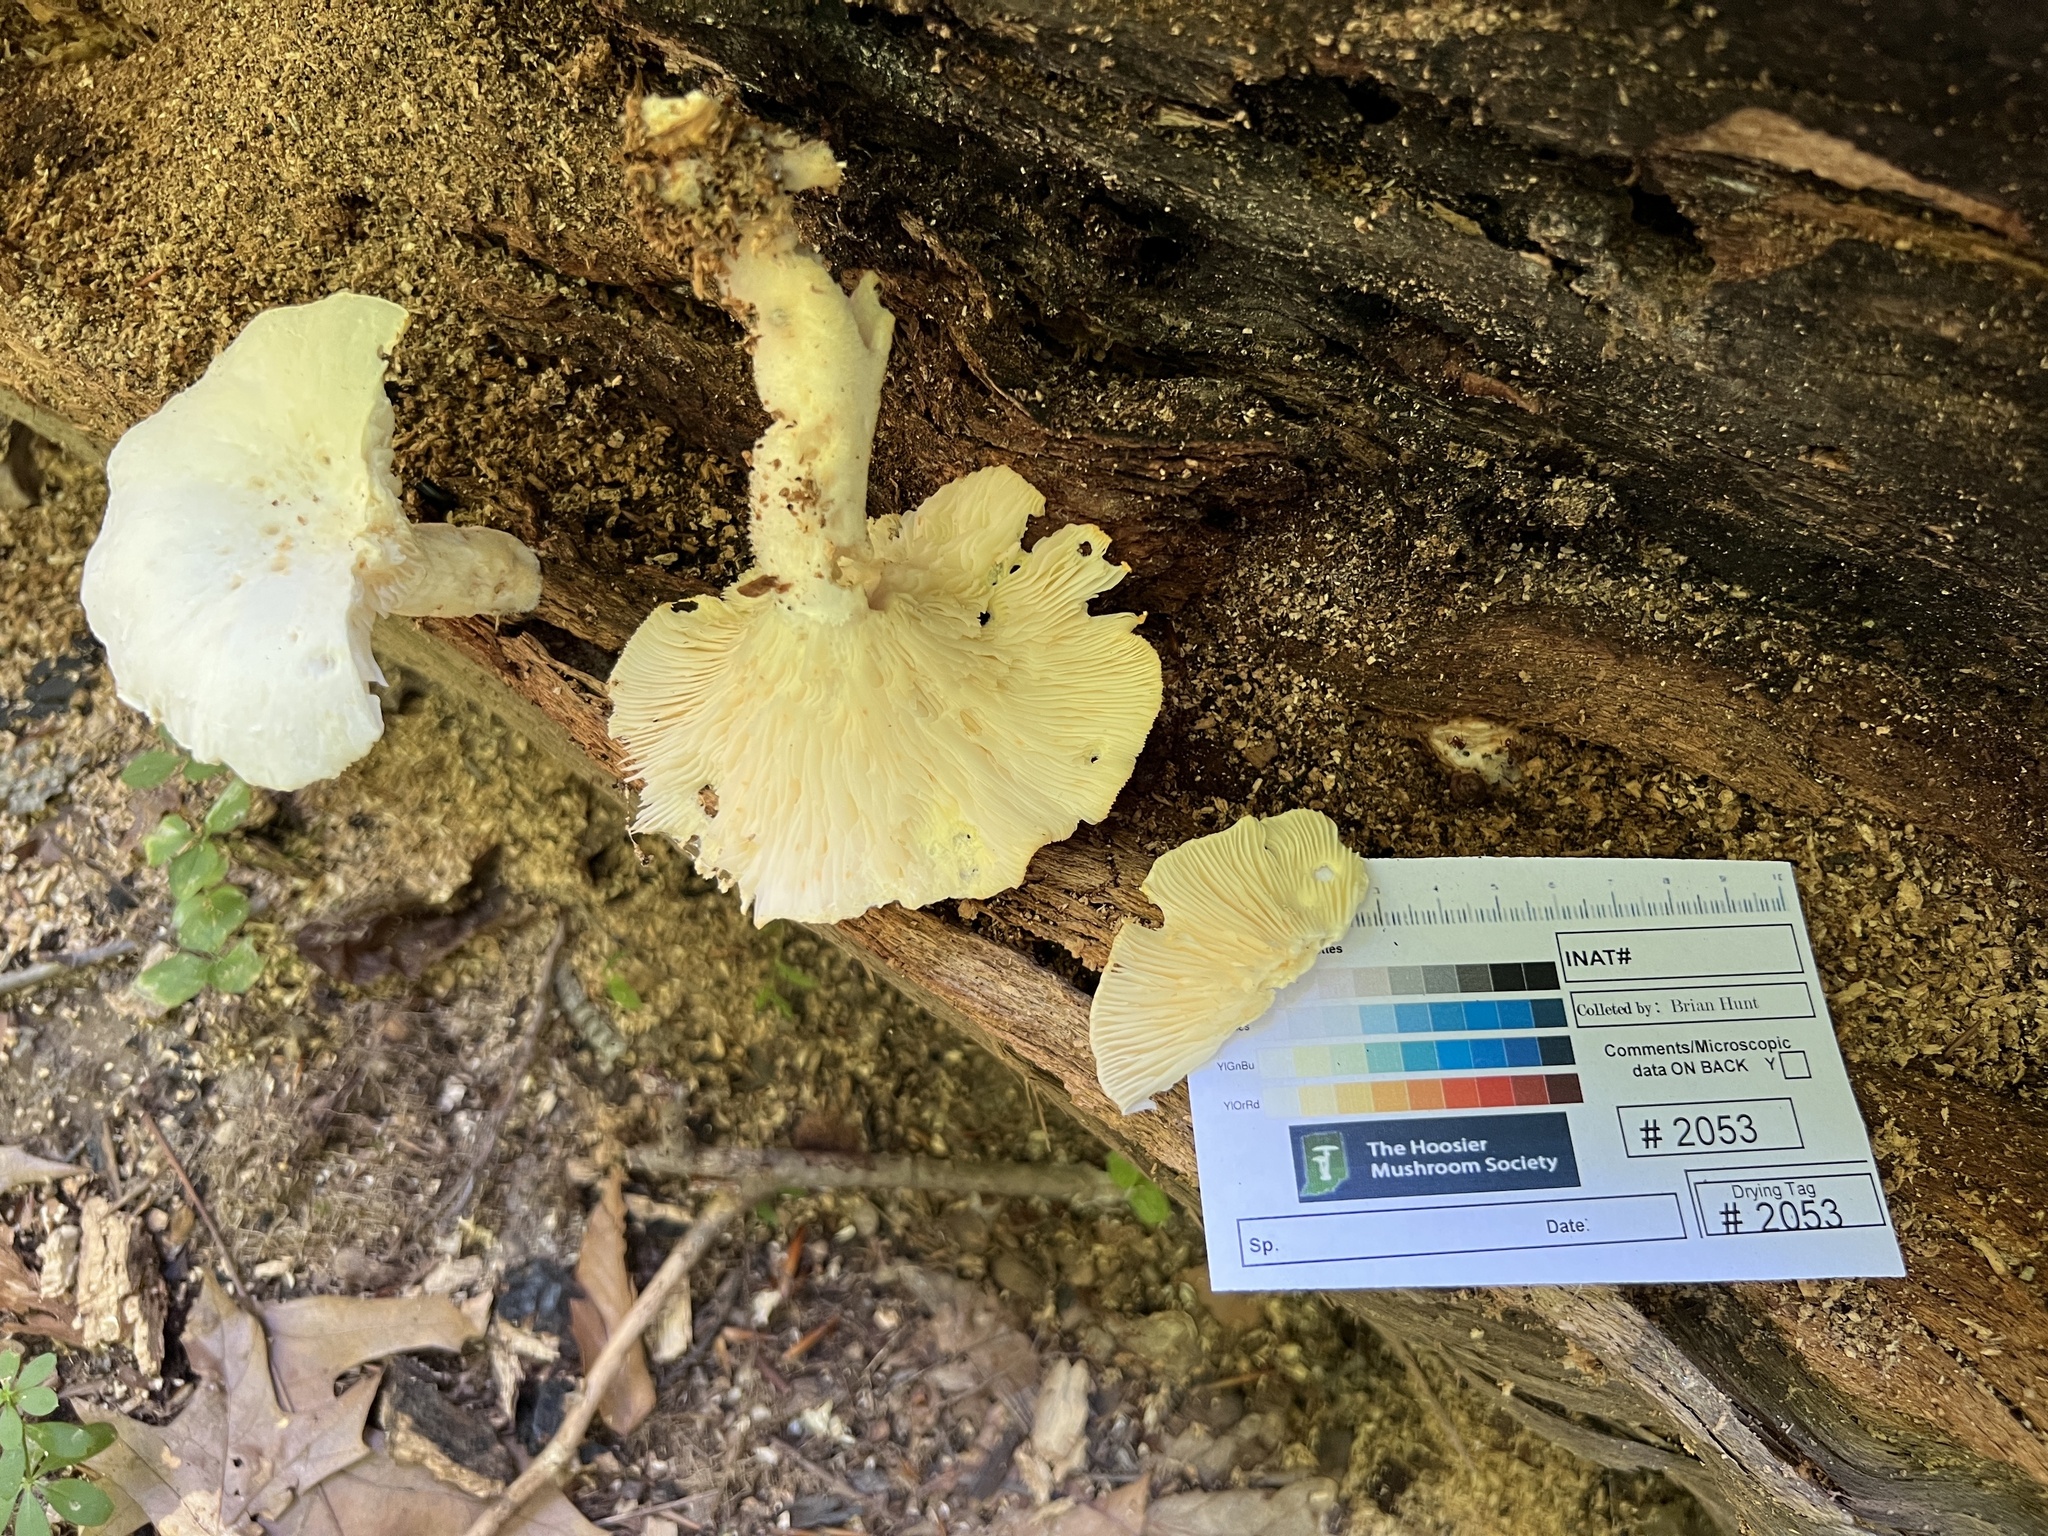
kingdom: Fungi
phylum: Basidiomycota
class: Agaricomycetes
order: Polyporales
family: Polyporaceae
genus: Lentinus
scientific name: Lentinus levis
